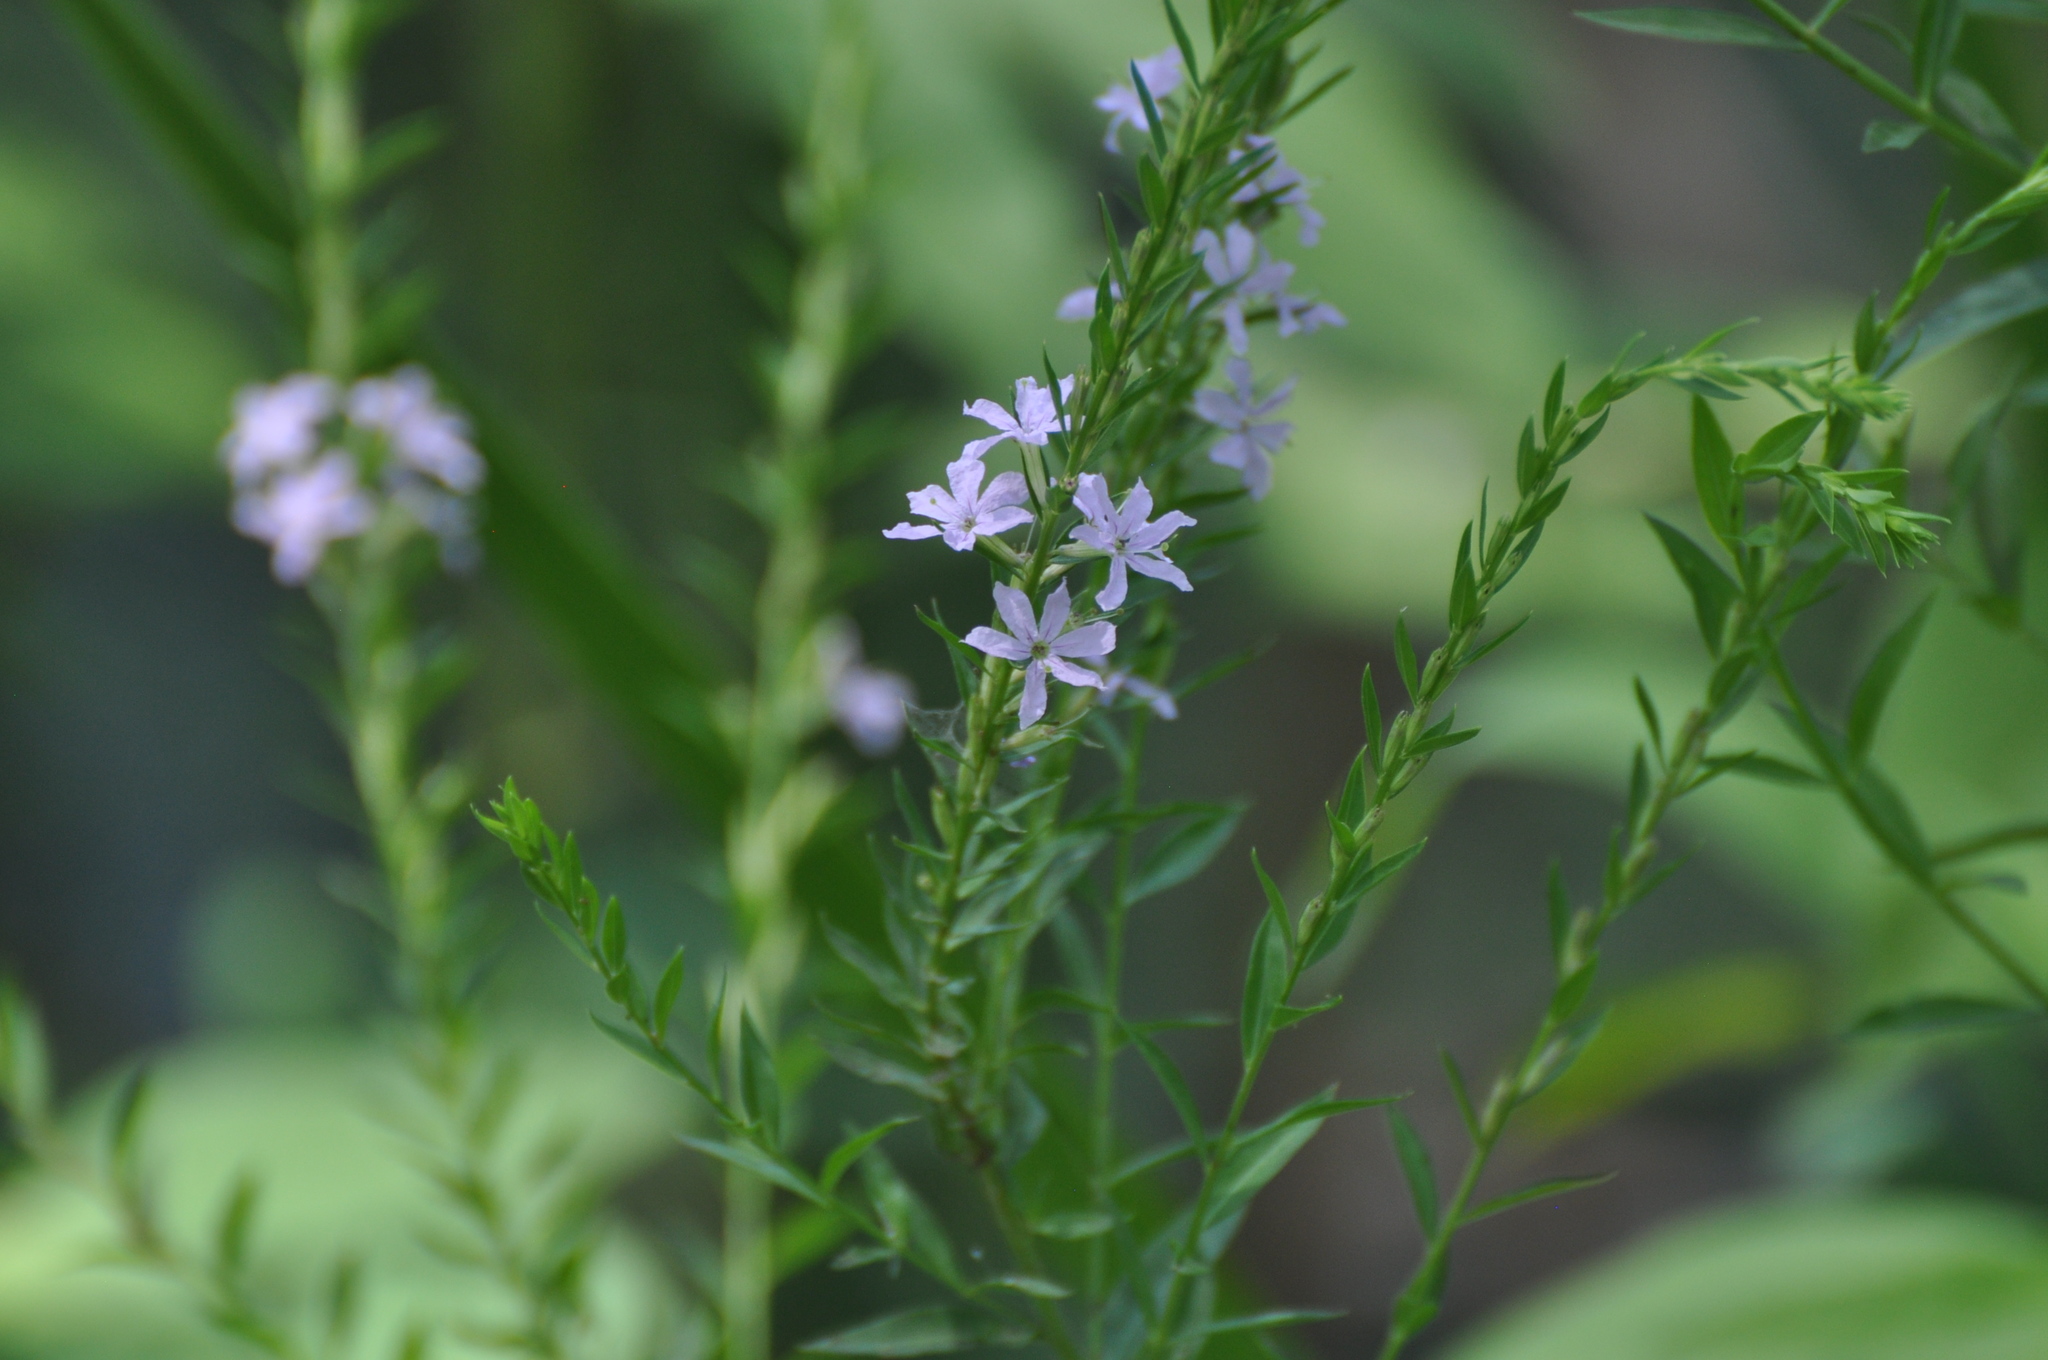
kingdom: Plantae
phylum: Tracheophyta
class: Magnoliopsida
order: Myrtales
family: Lythraceae
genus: Lythrum
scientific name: Lythrum alatum
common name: Winged loosestrife
